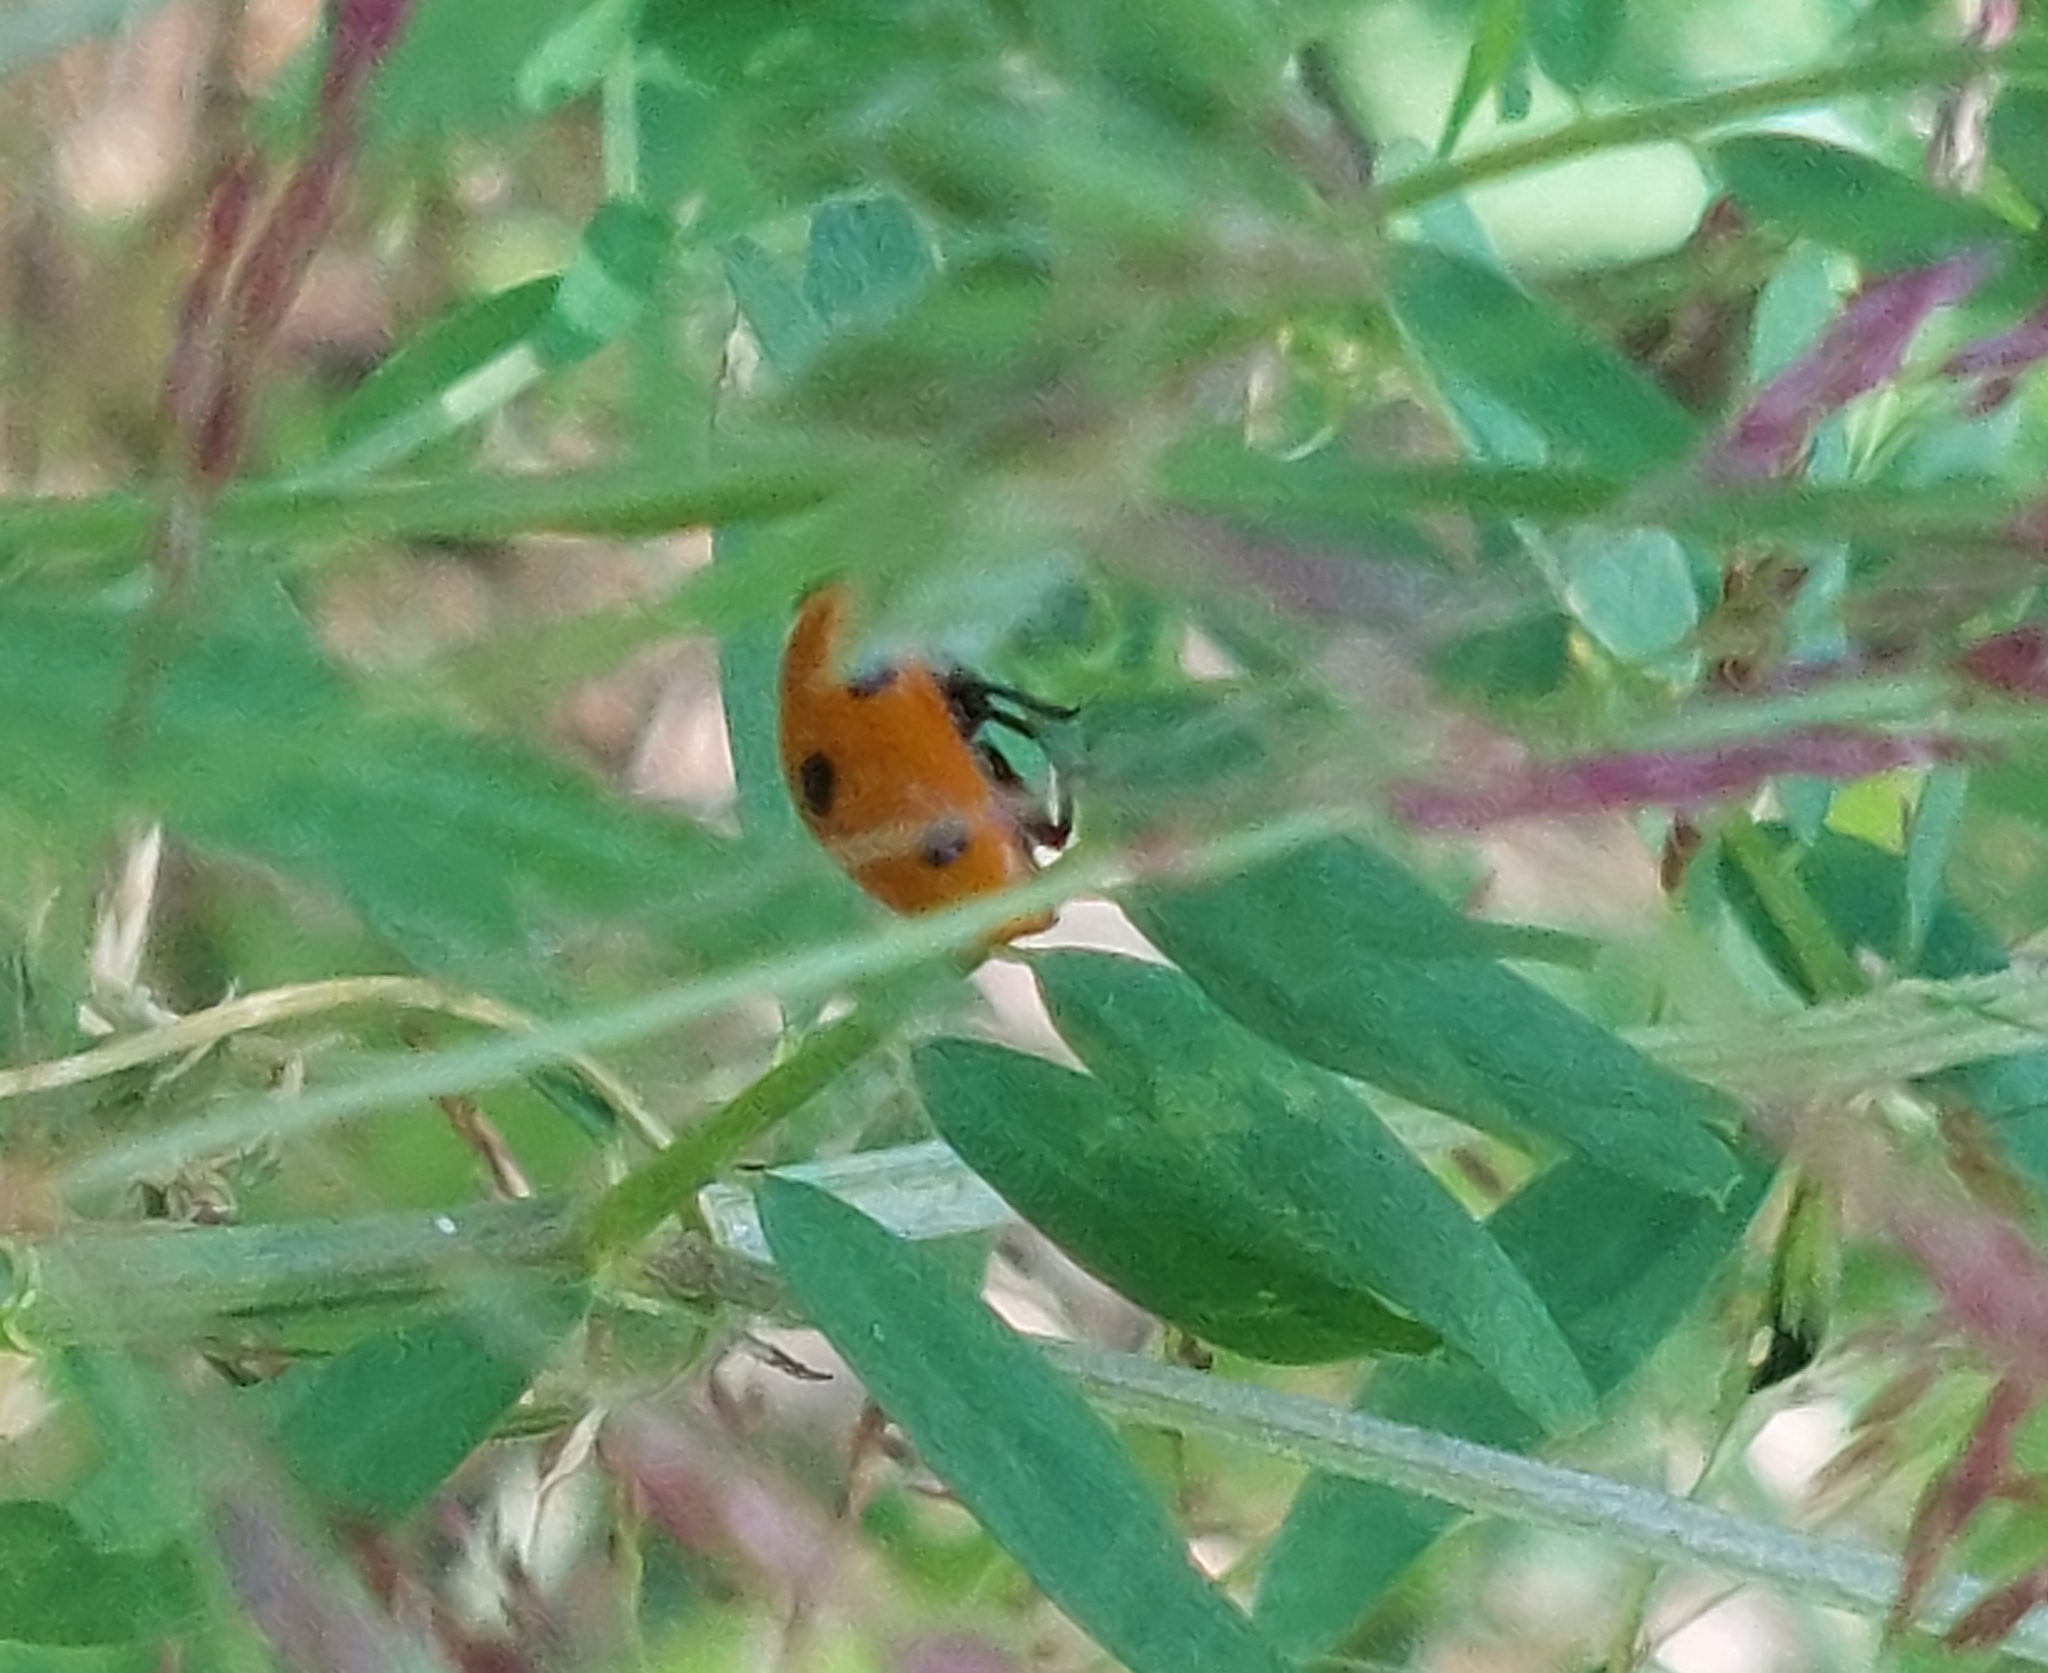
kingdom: Animalia
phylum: Arthropoda
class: Insecta
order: Coleoptera
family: Coccinellidae
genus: Coccinella
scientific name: Coccinella septempunctata
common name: Sevenspotted lady beetle
